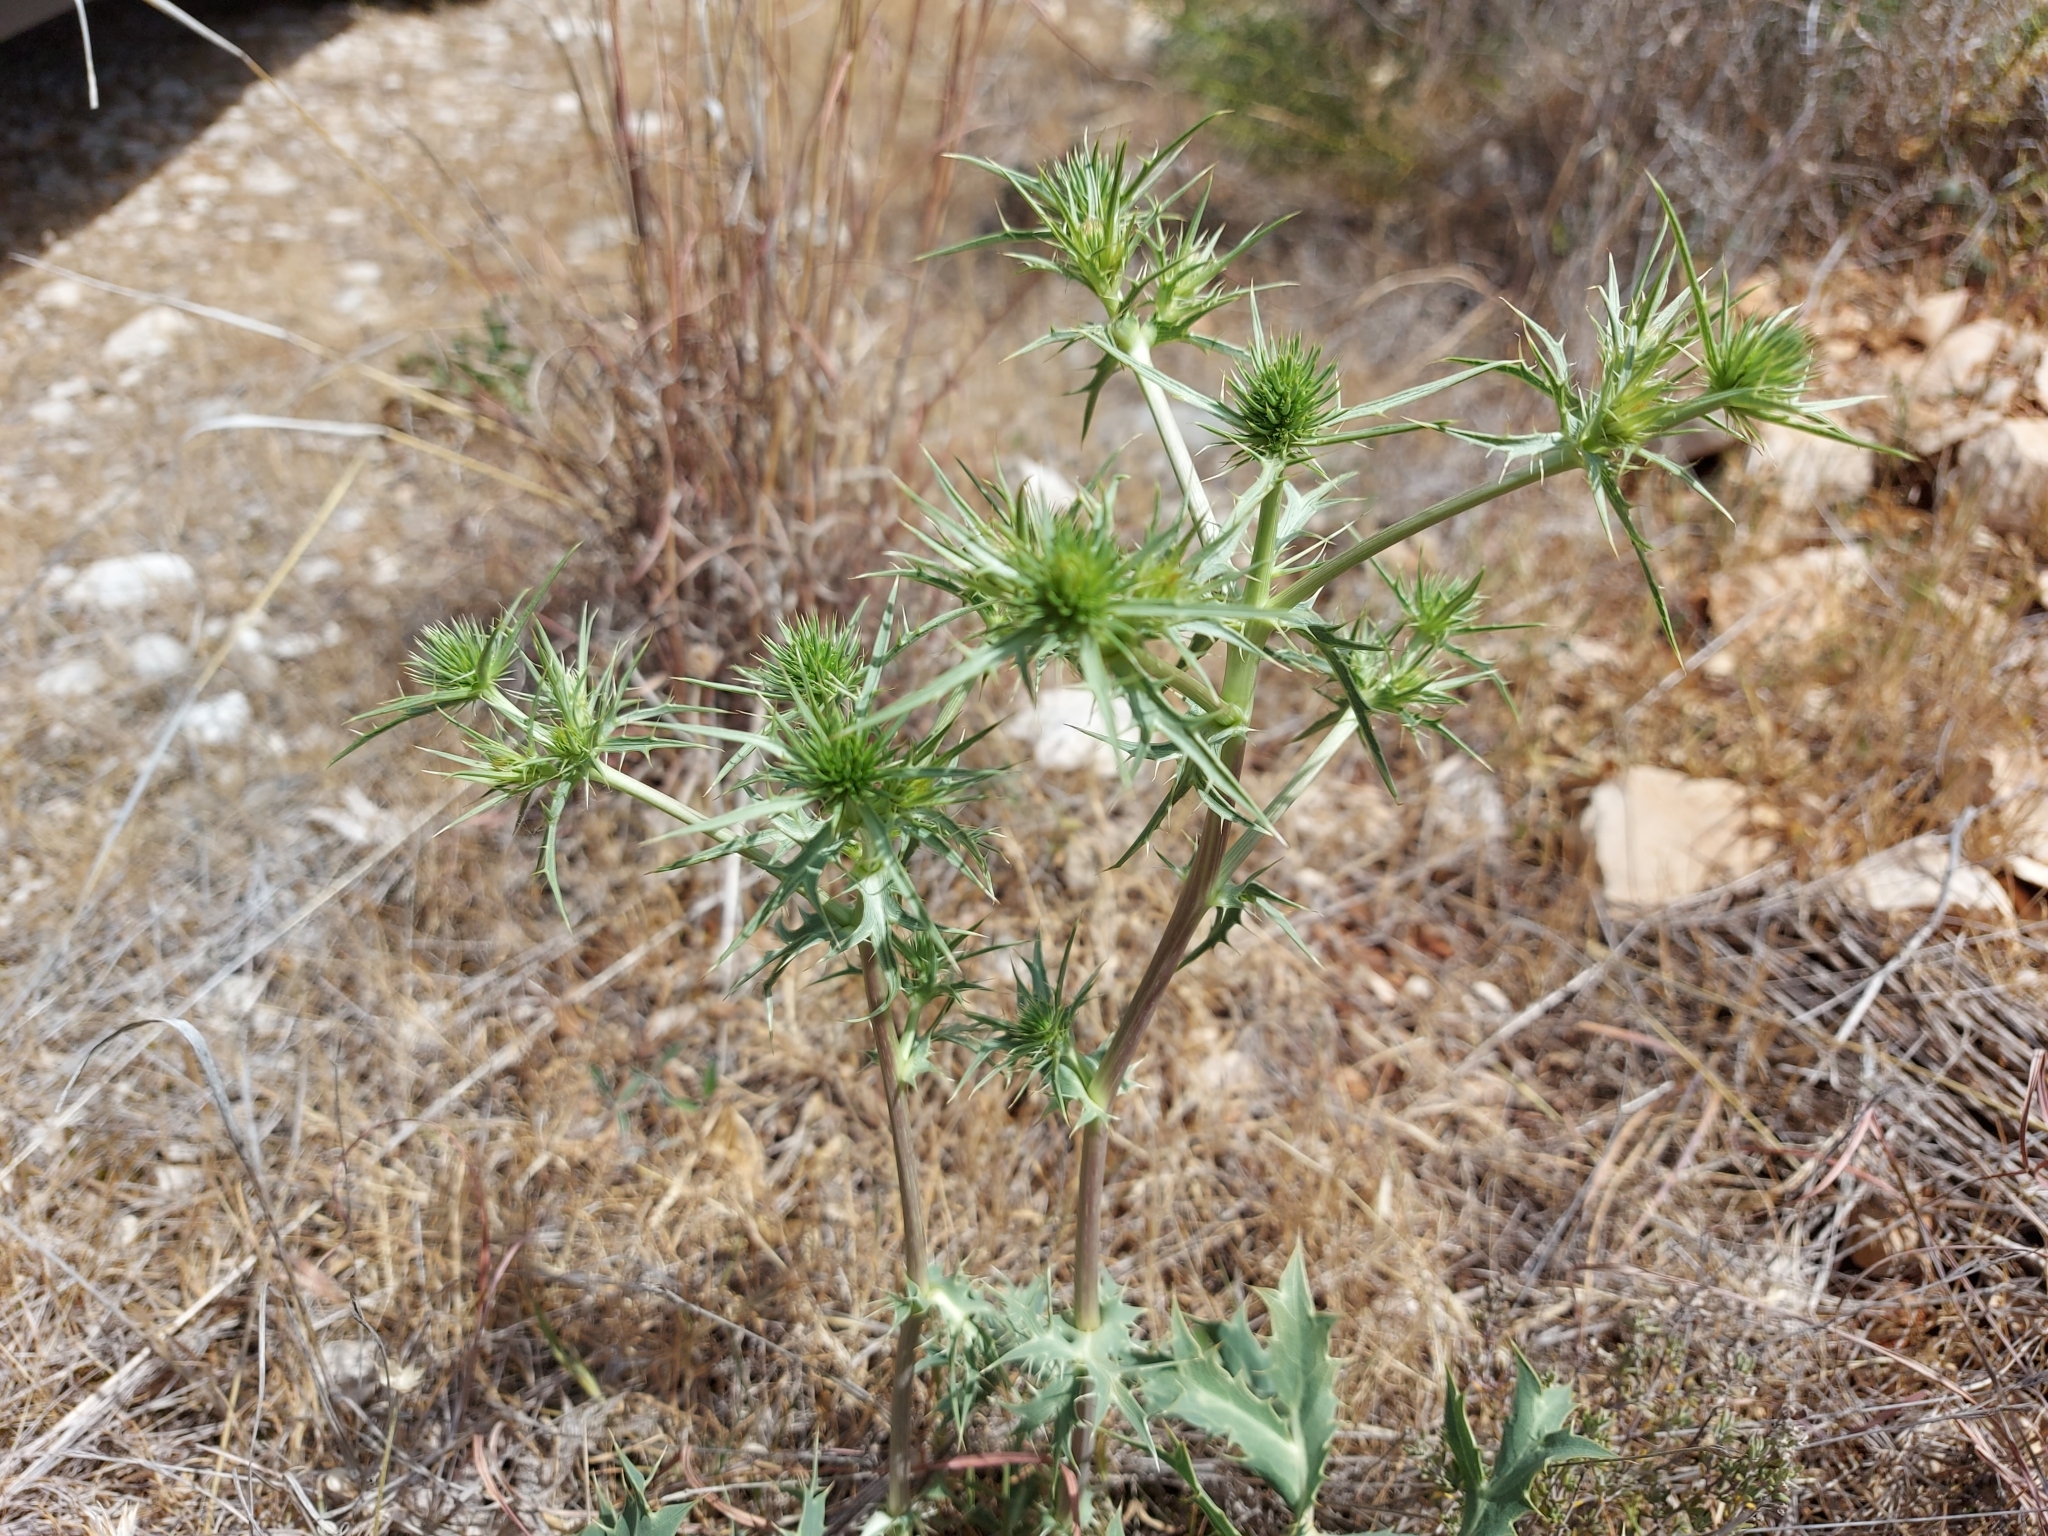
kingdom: Plantae
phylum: Tracheophyta
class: Magnoliopsida
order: Apiales
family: Apiaceae
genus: Eryngium
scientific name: Eryngium campestre
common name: Field eryngo
